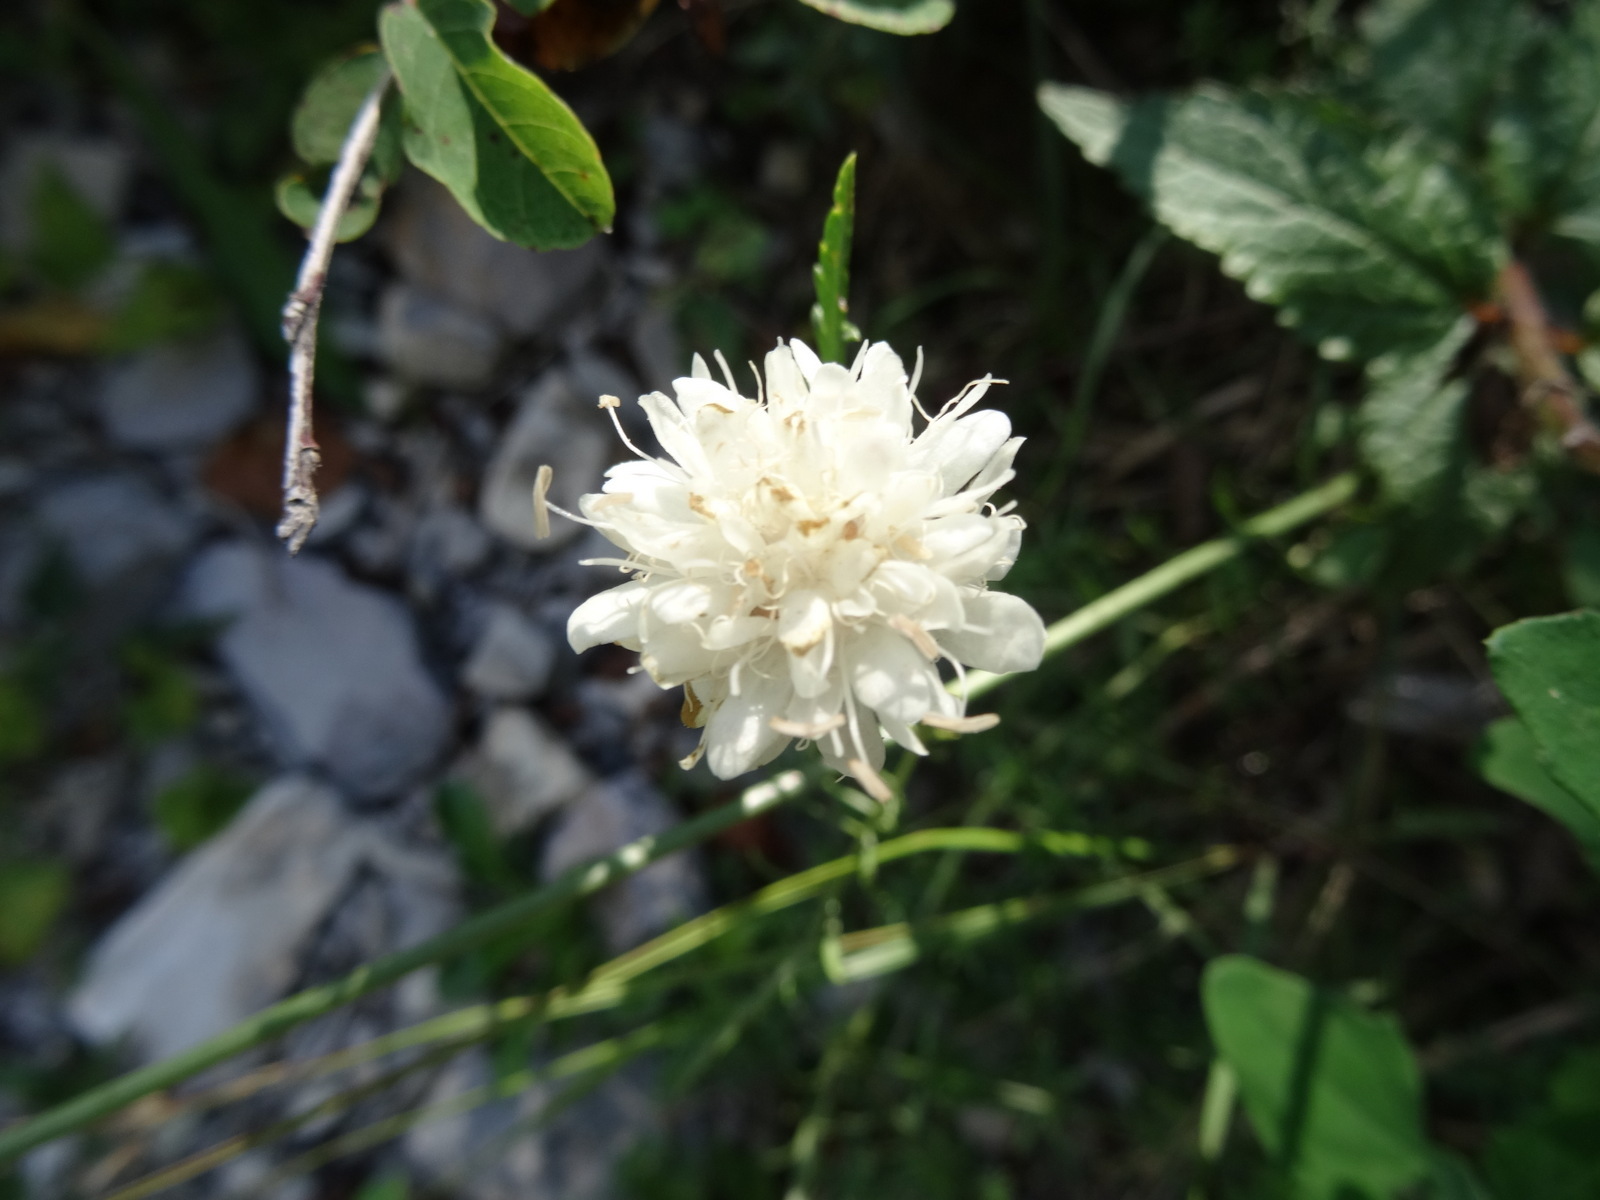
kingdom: Plantae
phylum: Tracheophyta
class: Magnoliopsida
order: Dipsacales
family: Caprifoliaceae
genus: Cephalaria
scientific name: Cephalaria leucantha
